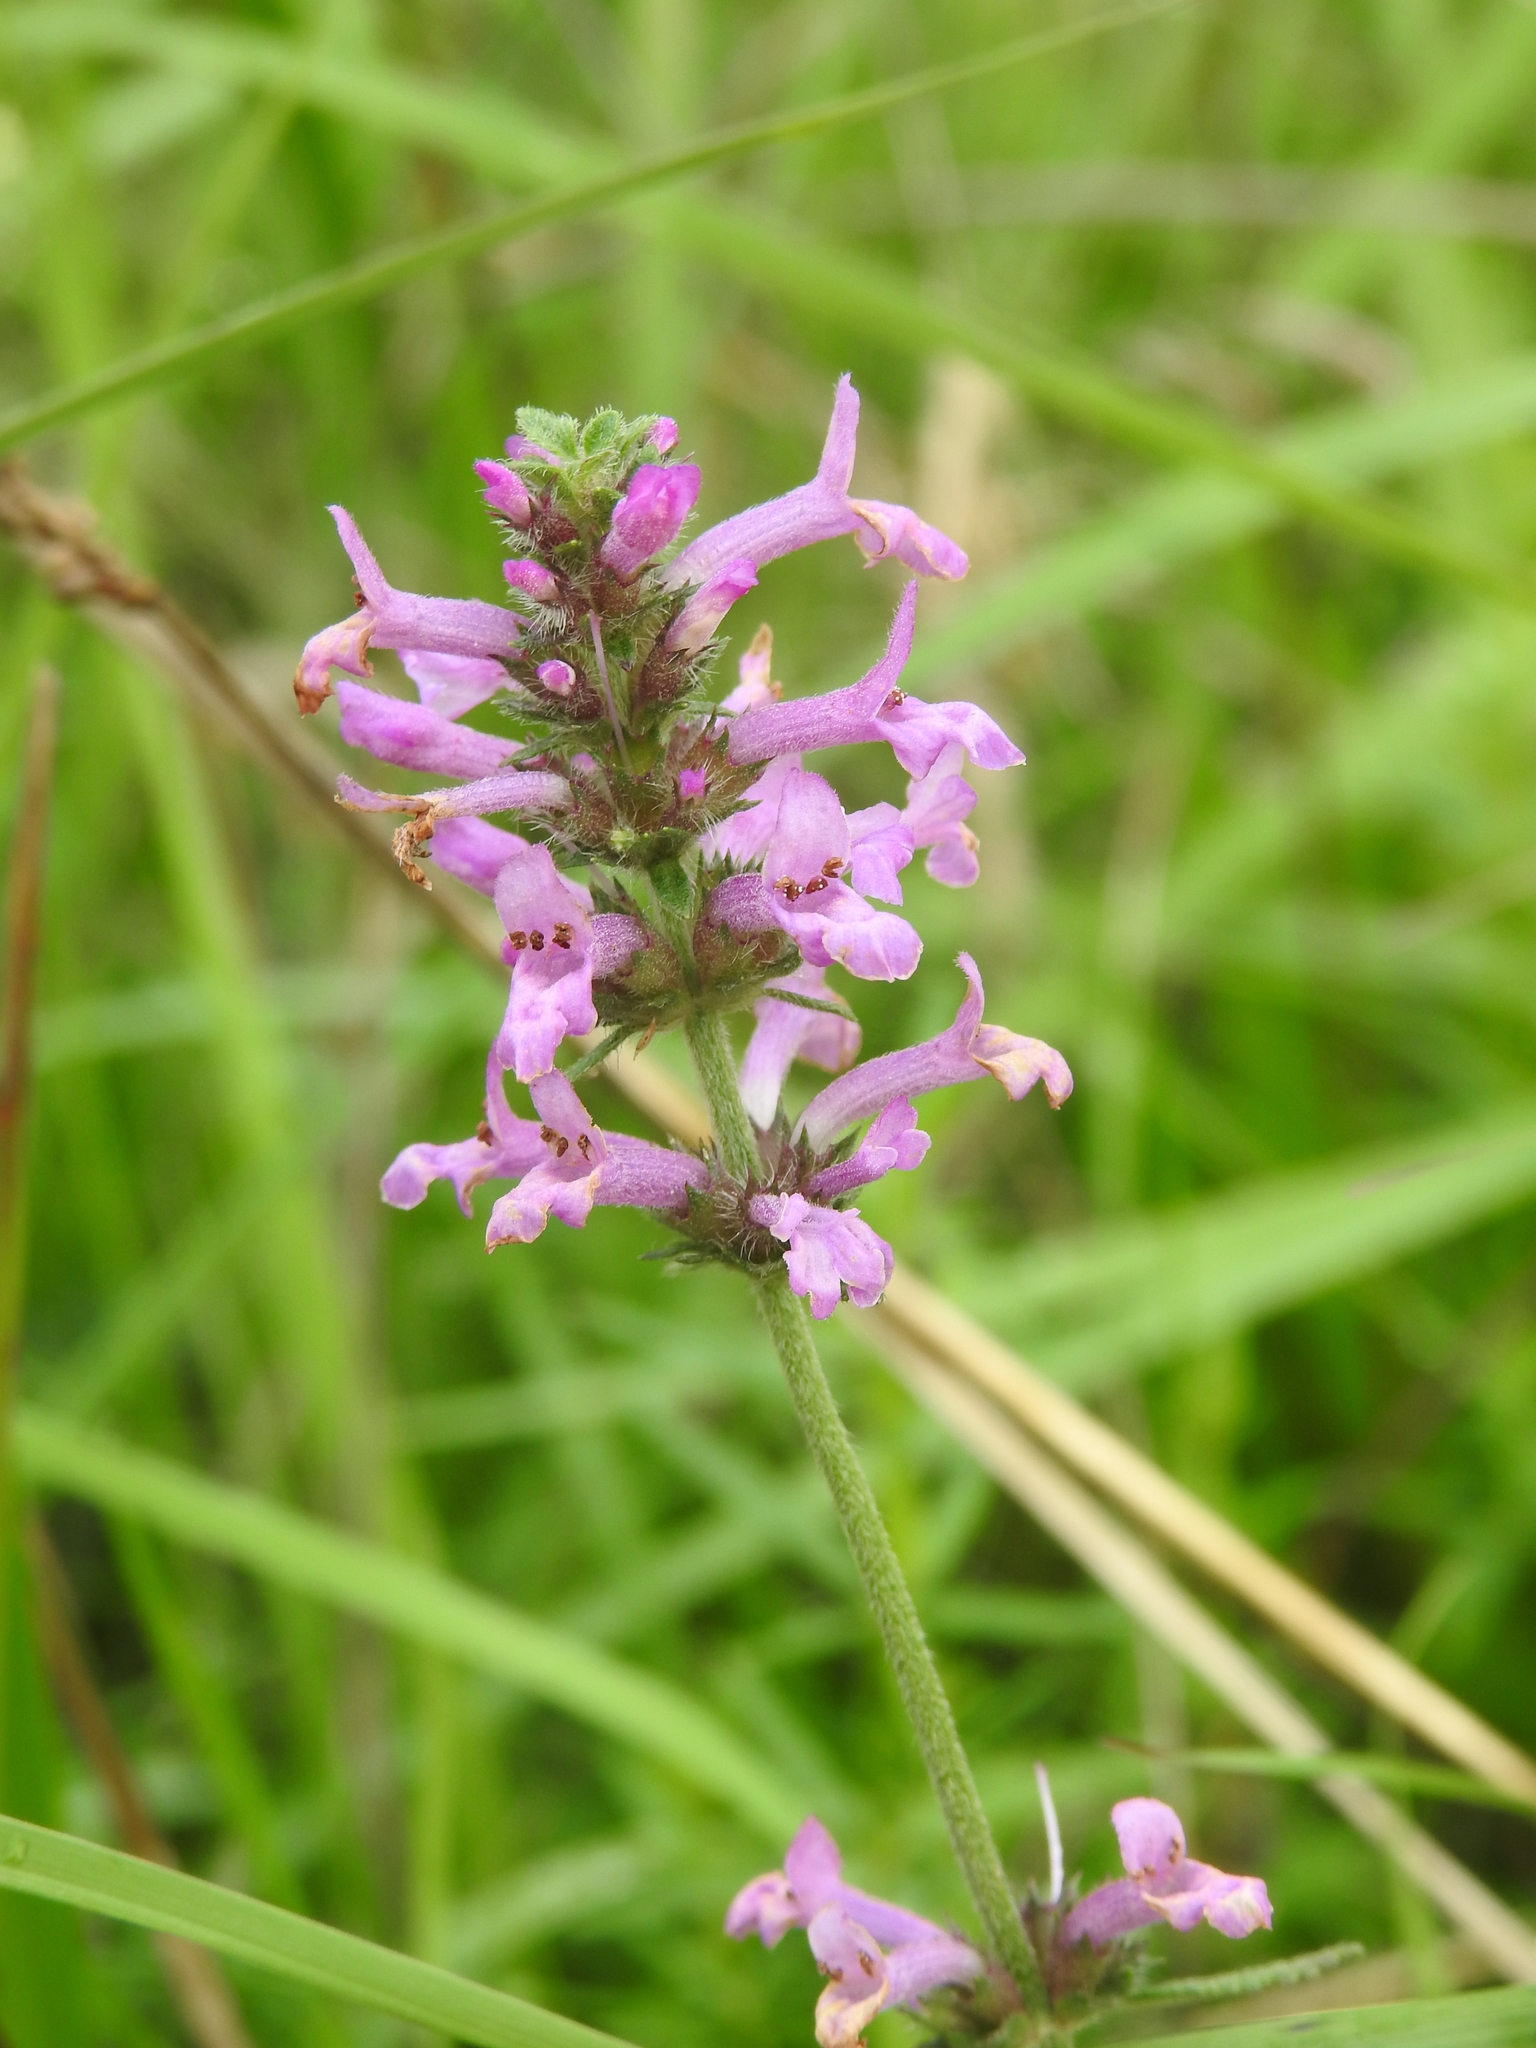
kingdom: Plantae
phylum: Tracheophyta
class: Magnoliopsida
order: Lamiales
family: Lamiaceae
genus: Betonica
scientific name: Betonica officinalis
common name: Bishop's-wort
